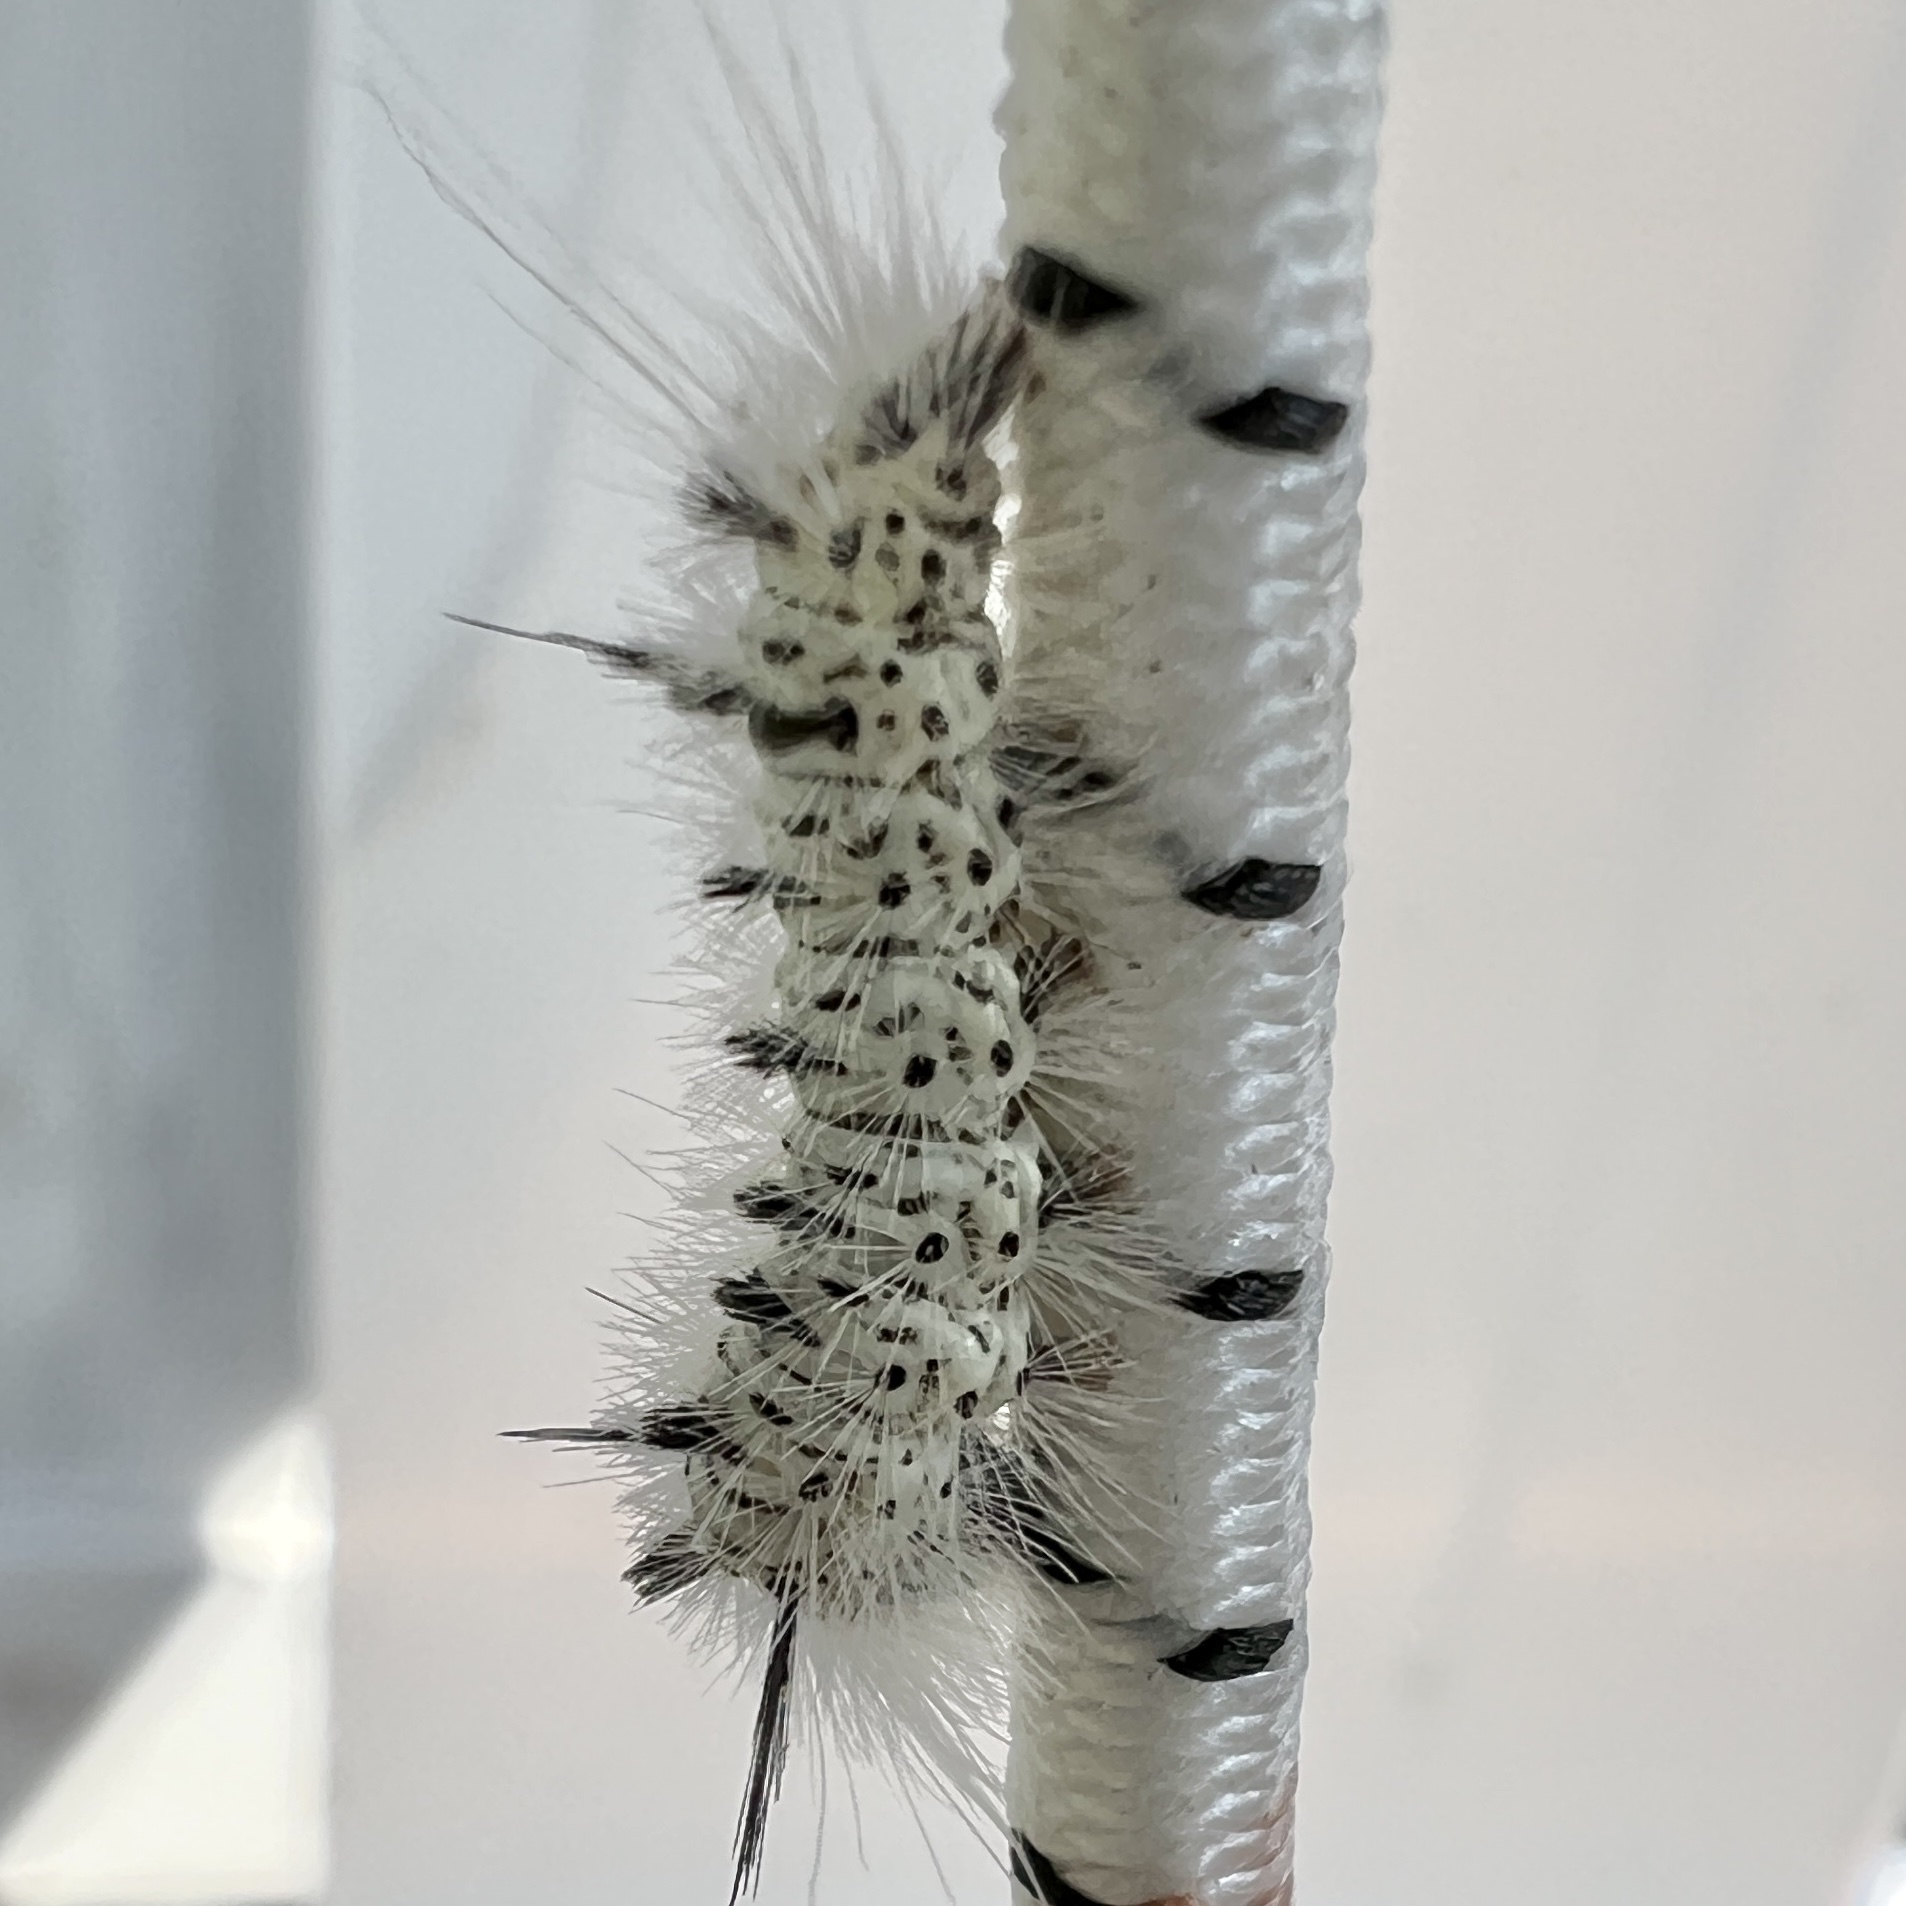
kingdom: Animalia
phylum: Arthropoda
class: Insecta
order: Lepidoptera
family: Erebidae
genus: Lophocampa
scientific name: Lophocampa caryae
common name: Hickory tussock moth
